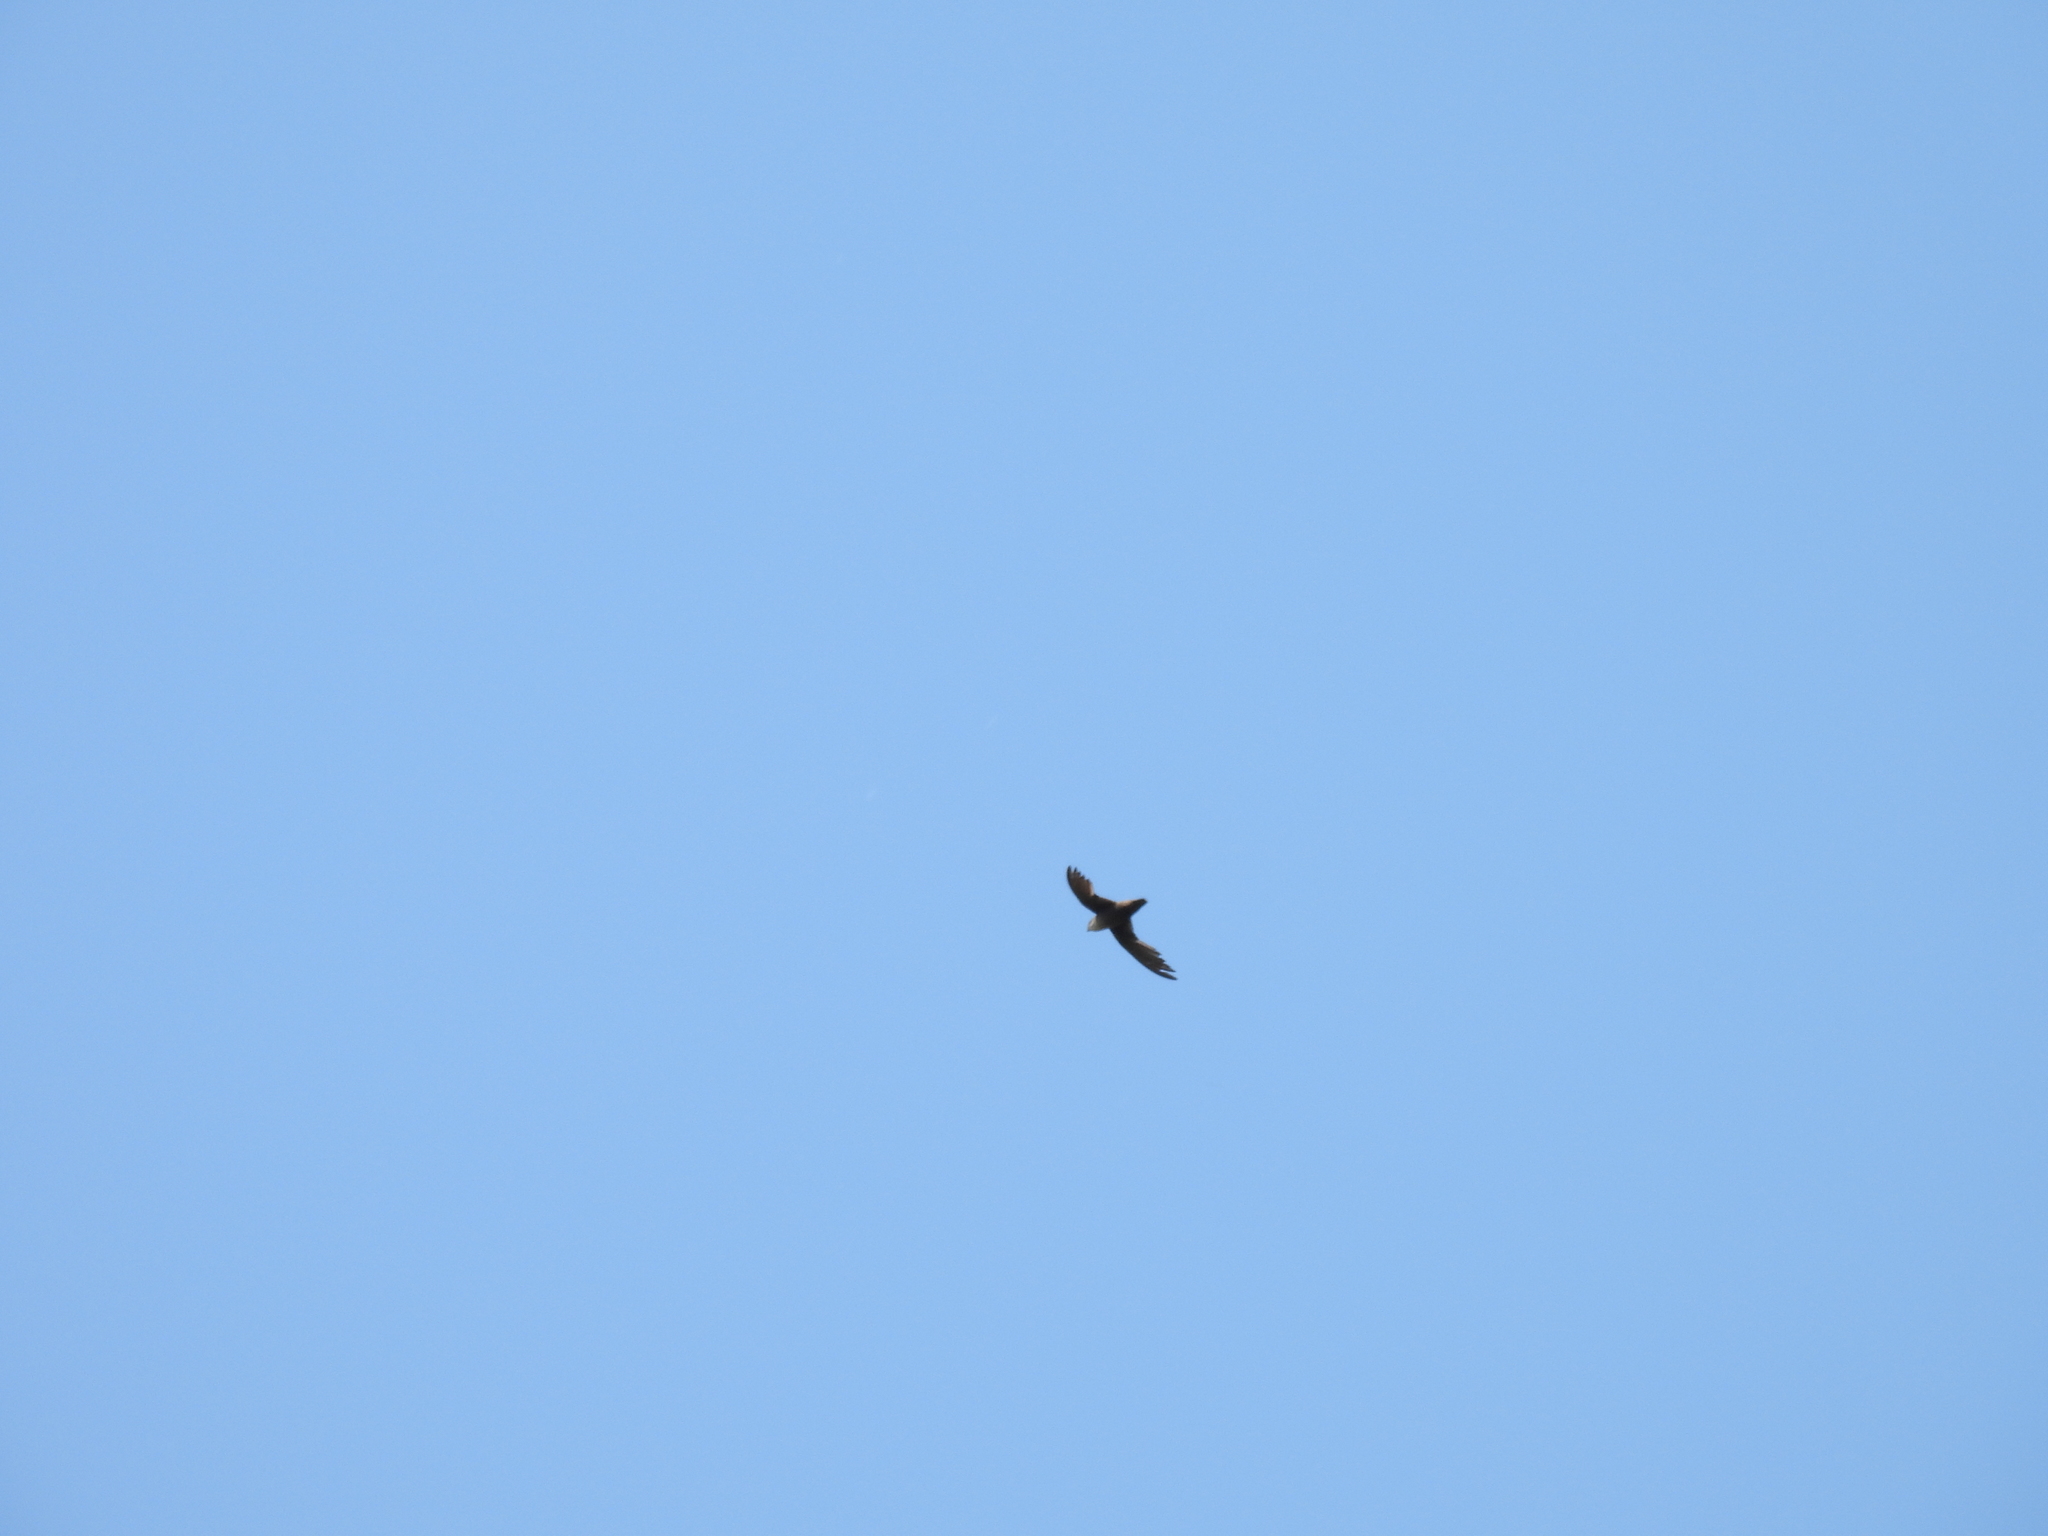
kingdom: Animalia
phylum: Chordata
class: Aves
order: Apodiformes
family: Apodidae
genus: Chaetura
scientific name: Chaetura pelagica
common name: Chimney swift
